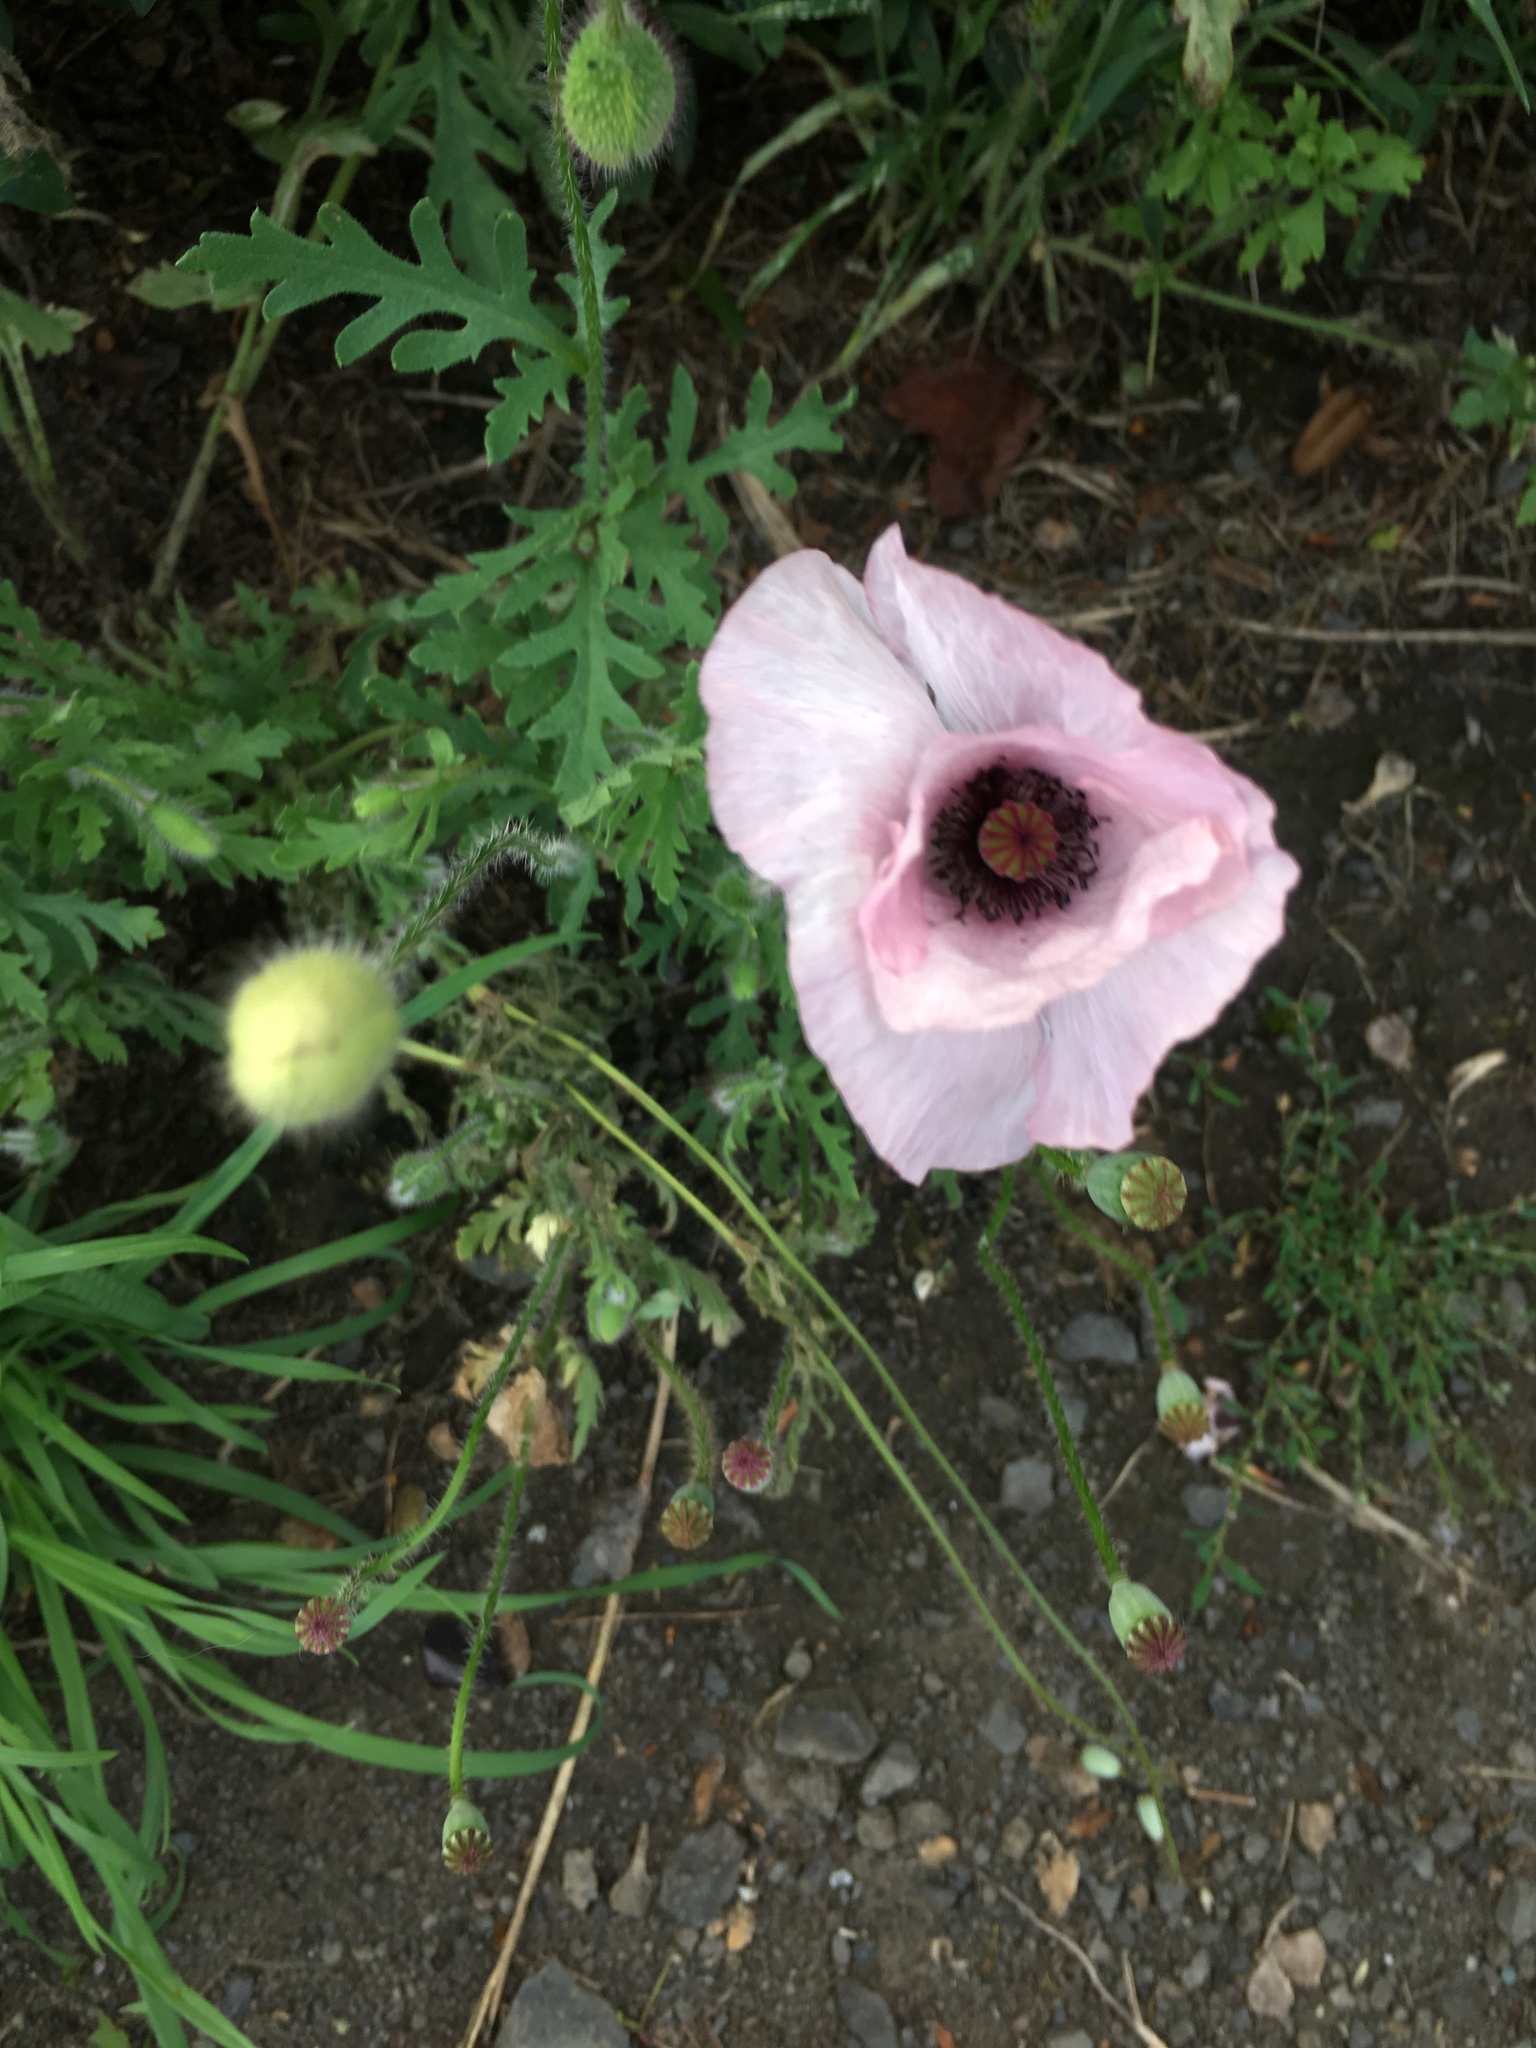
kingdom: Plantae
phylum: Tracheophyta
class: Magnoliopsida
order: Ranunculales
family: Papaveraceae
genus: Papaver
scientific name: Papaver rhoeas
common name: Corn poppy
